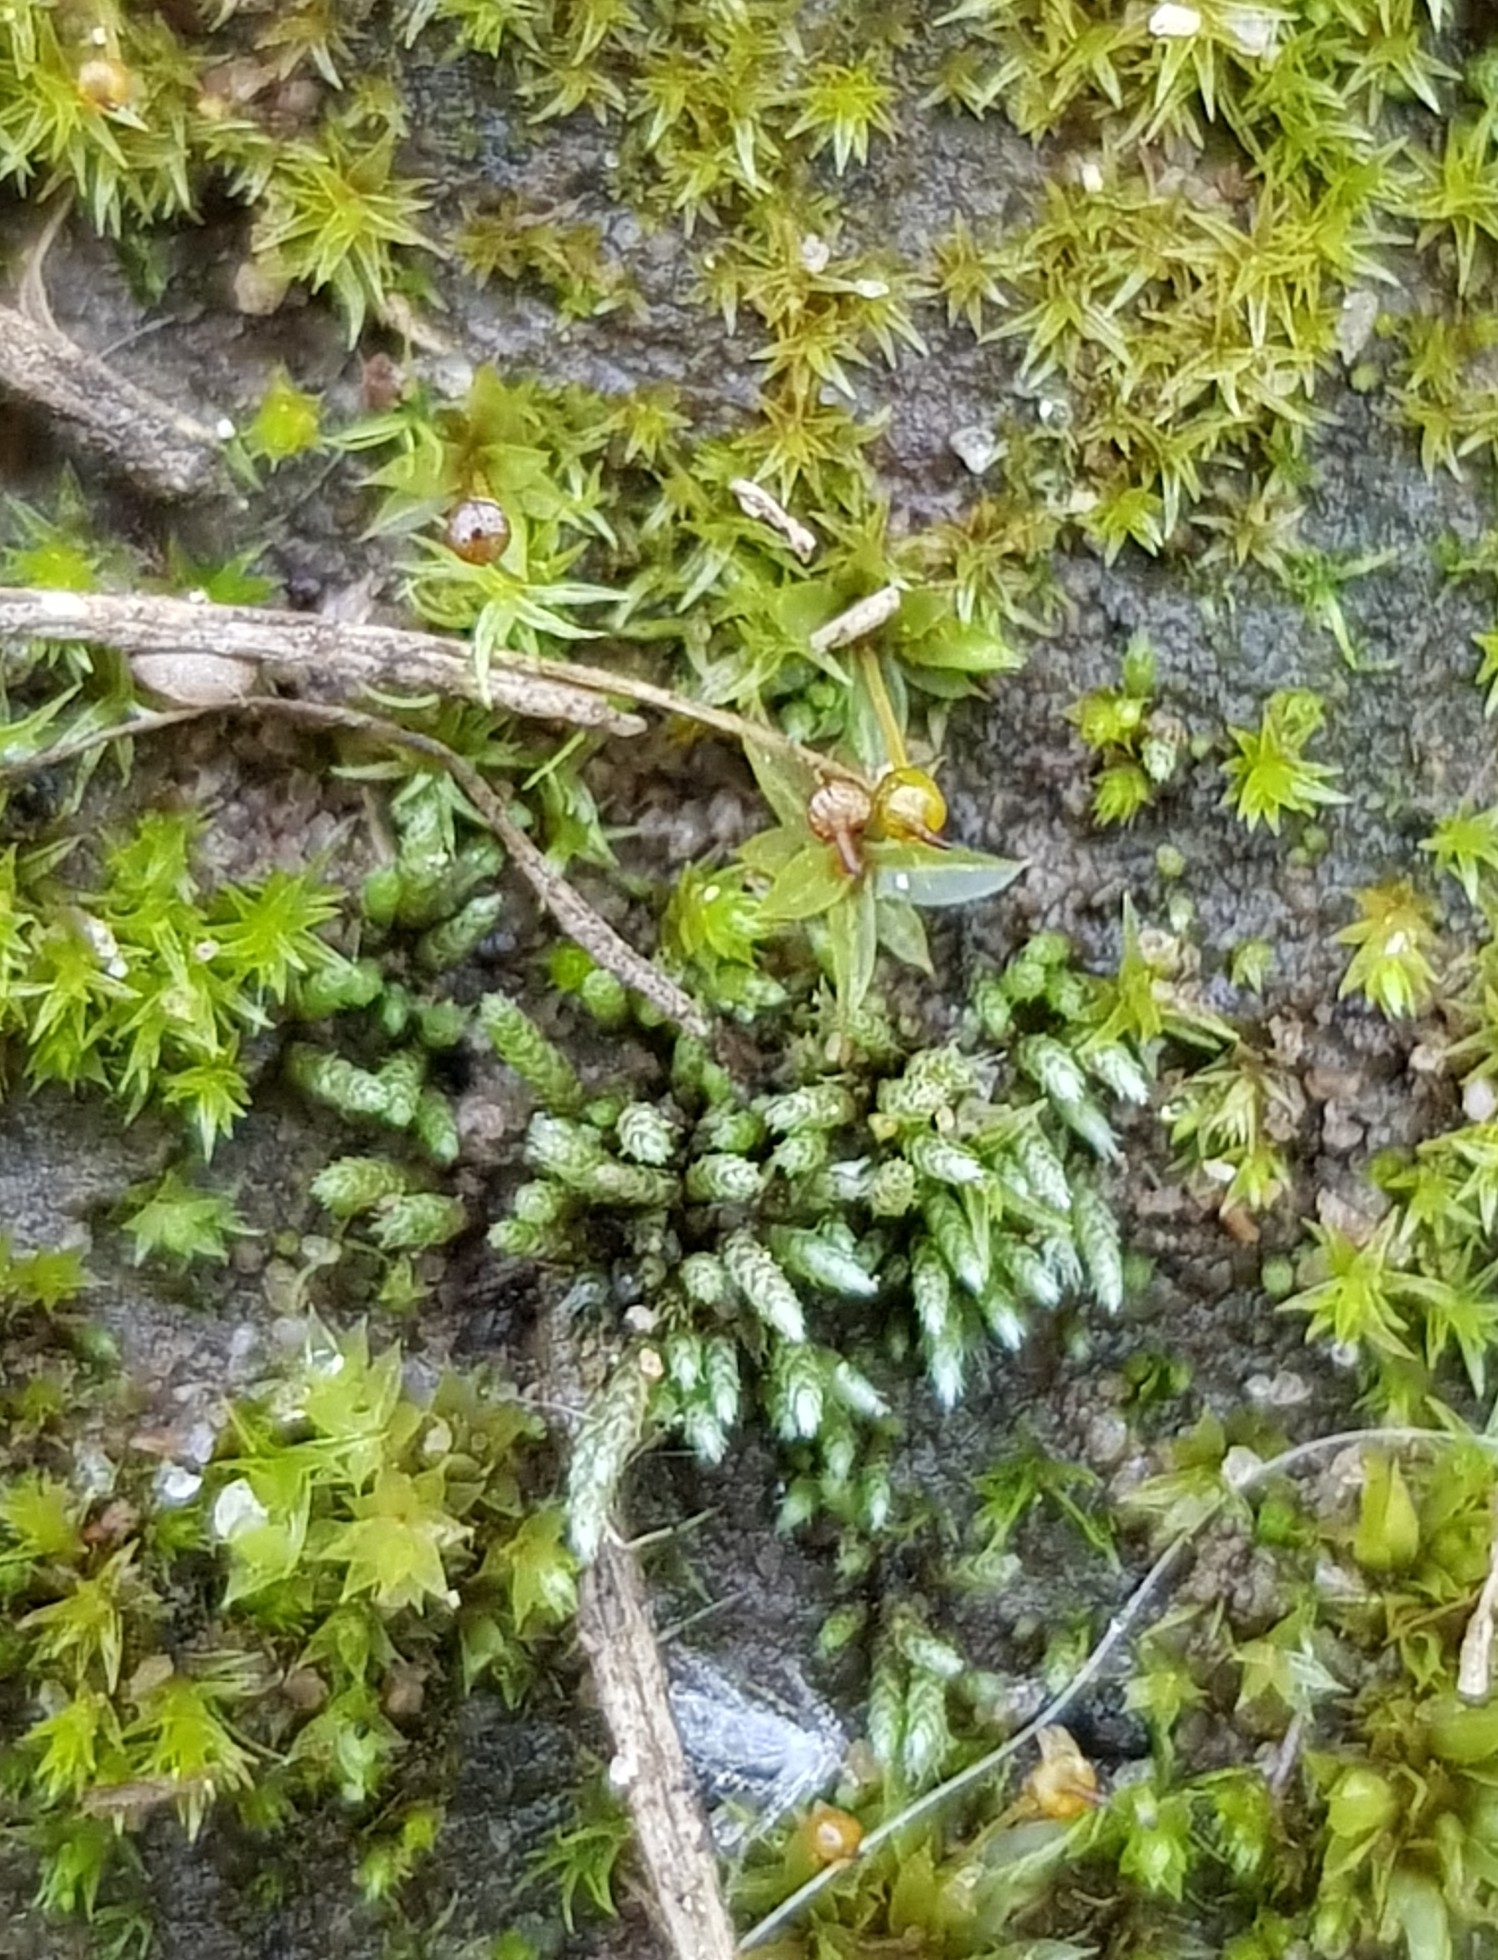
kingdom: Plantae
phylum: Bryophyta
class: Bryopsida
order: Bryales
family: Bryaceae
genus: Bryum
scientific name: Bryum argenteum
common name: Silver-moss
